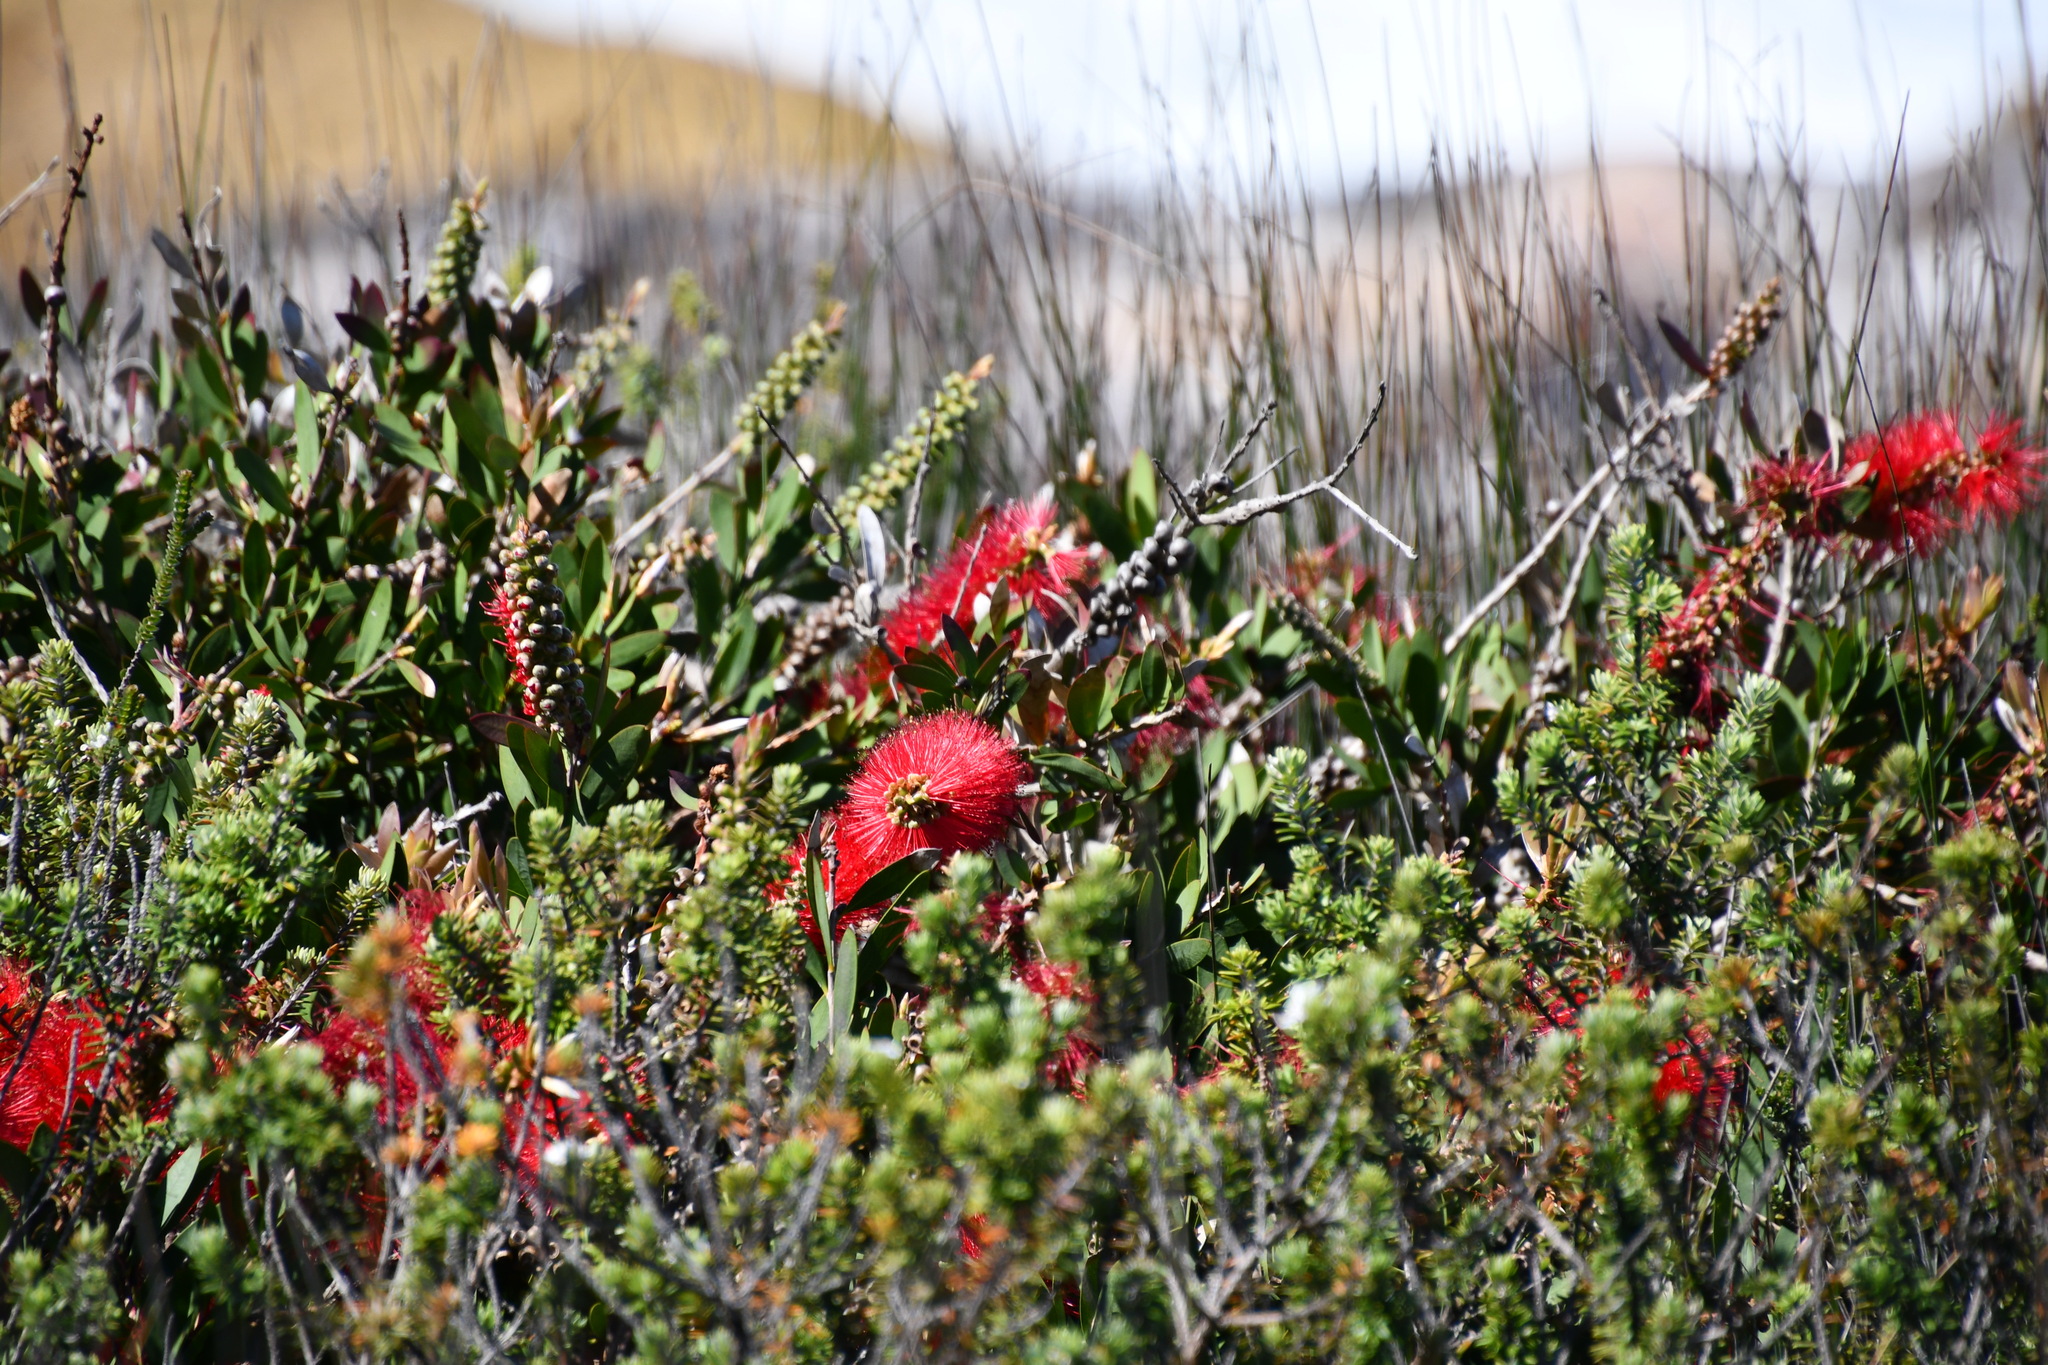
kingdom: Plantae
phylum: Tracheophyta
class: Magnoliopsida
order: Myrtales
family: Myrtaceae
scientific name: Myrtaceae
